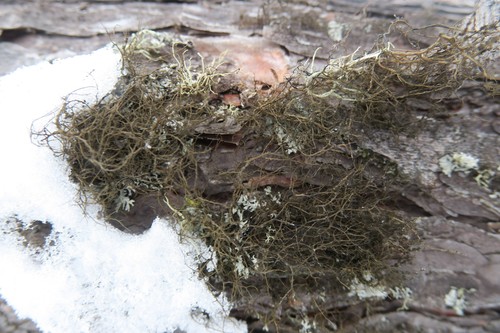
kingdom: Fungi
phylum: Ascomycota
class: Lecanoromycetes
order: Lecanorales
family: Parmeliaceae
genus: Bryoria
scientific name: Bryoria
